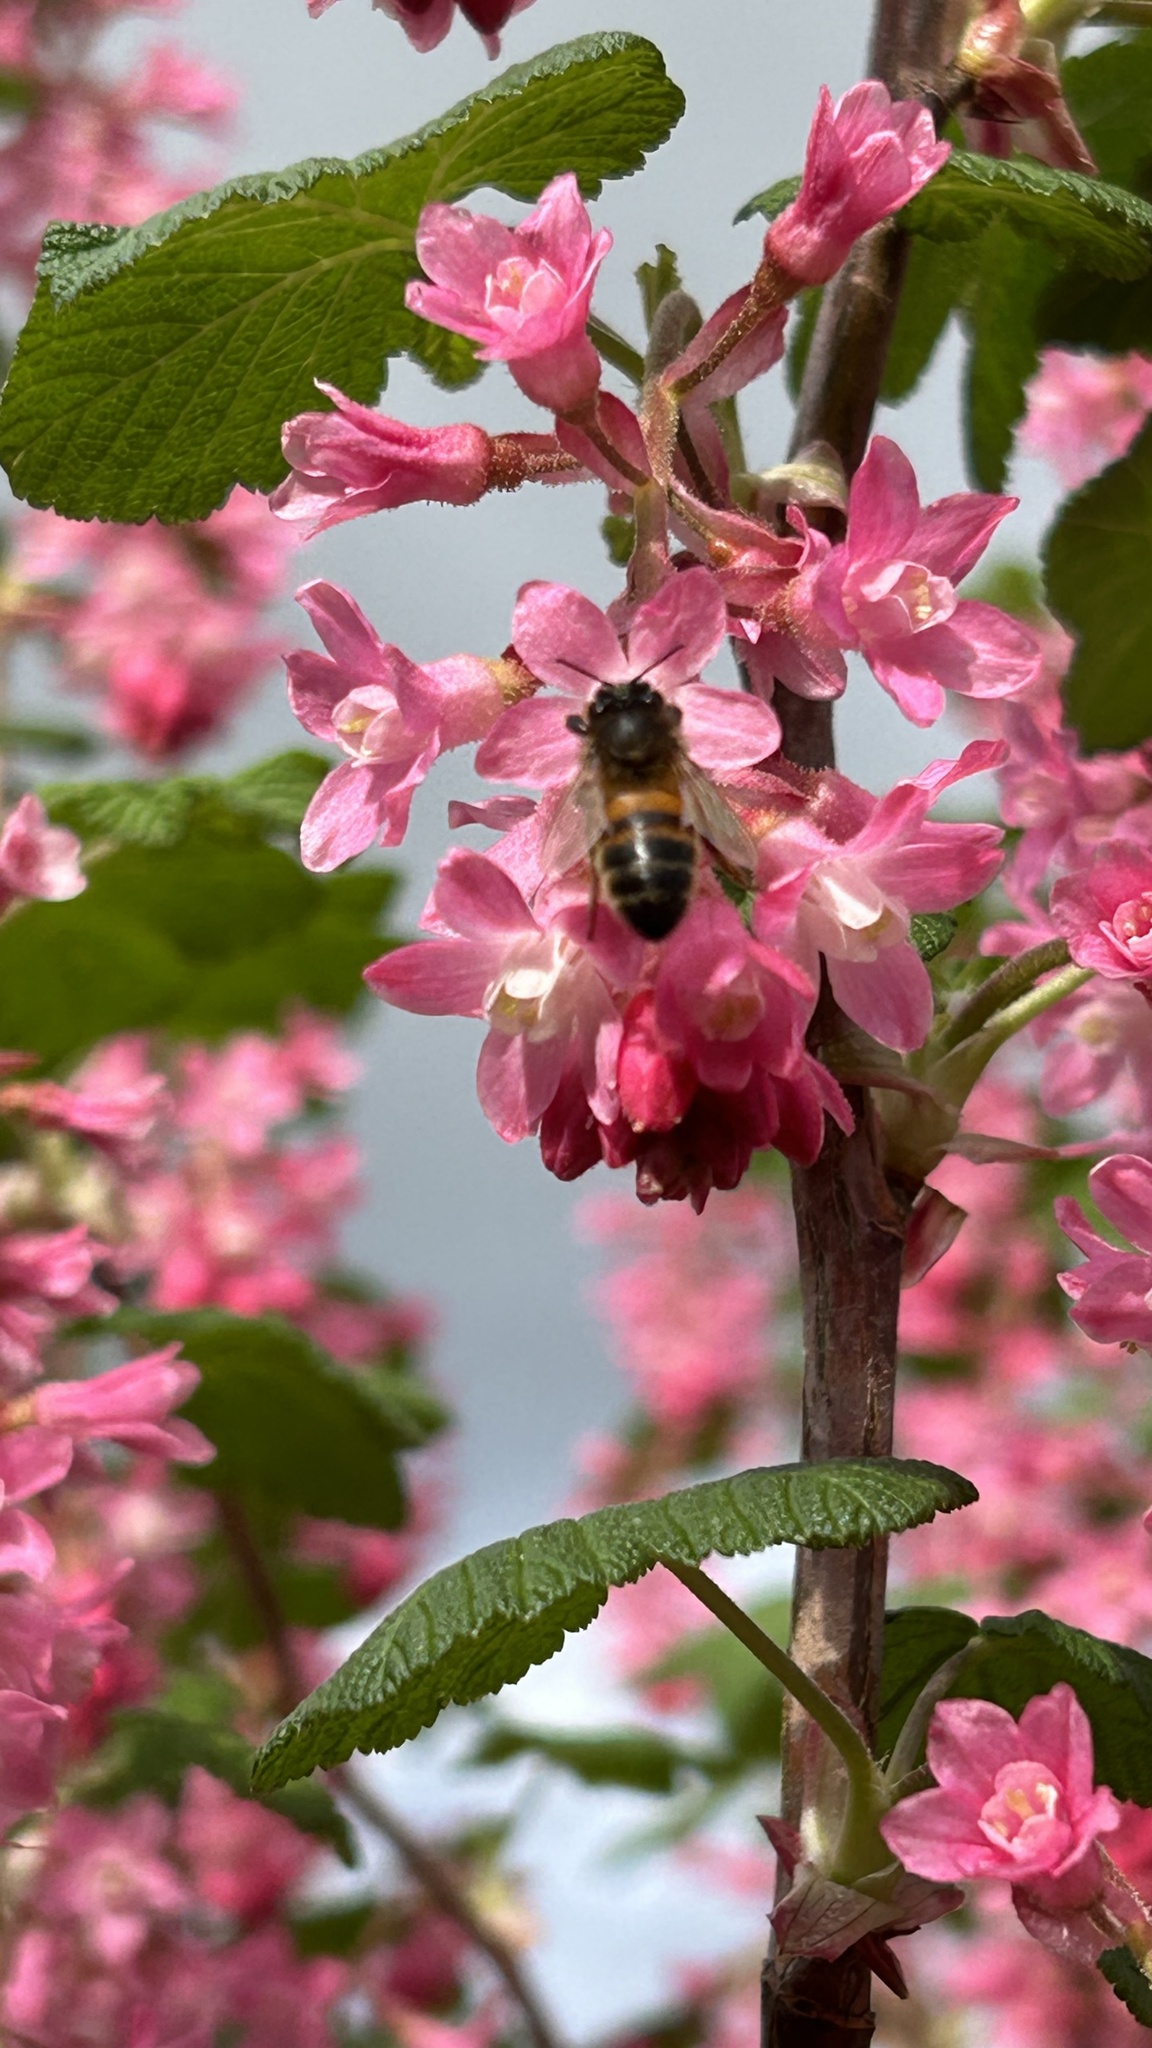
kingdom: Animalia
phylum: Arthropoda
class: Insecta
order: Hymenoptera
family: Apidae
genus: Apis
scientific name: Apis mellifera
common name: Honey bee
